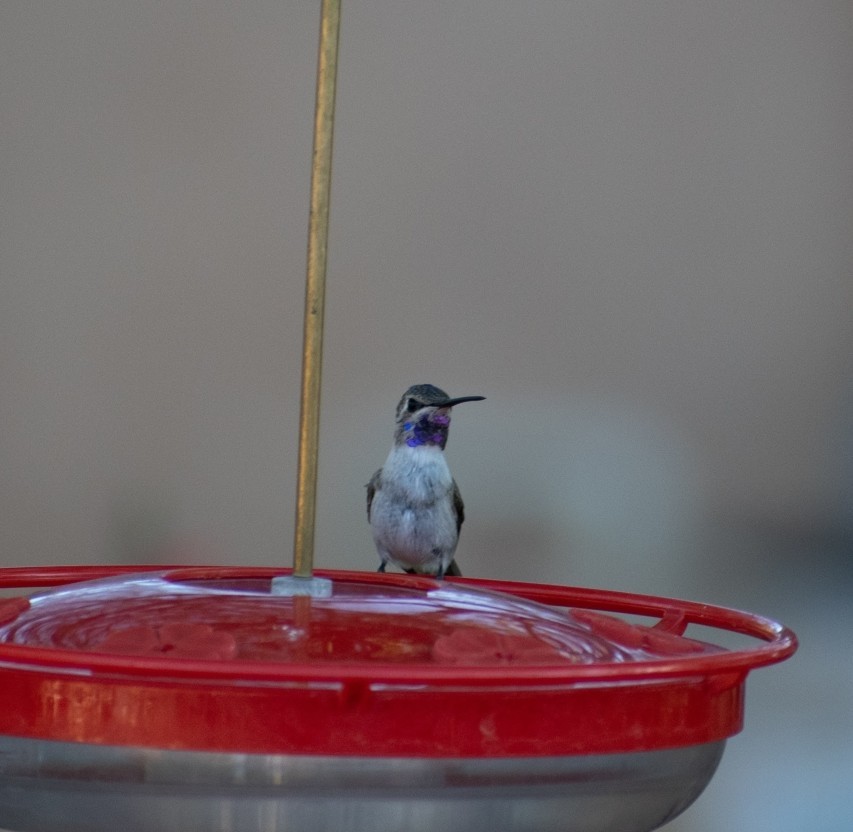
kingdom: Animalia
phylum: Chordata
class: Aves
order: Apodiformes
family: Trochilidae
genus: Calypte
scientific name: Calypte costae
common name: Costa's hummingbird
